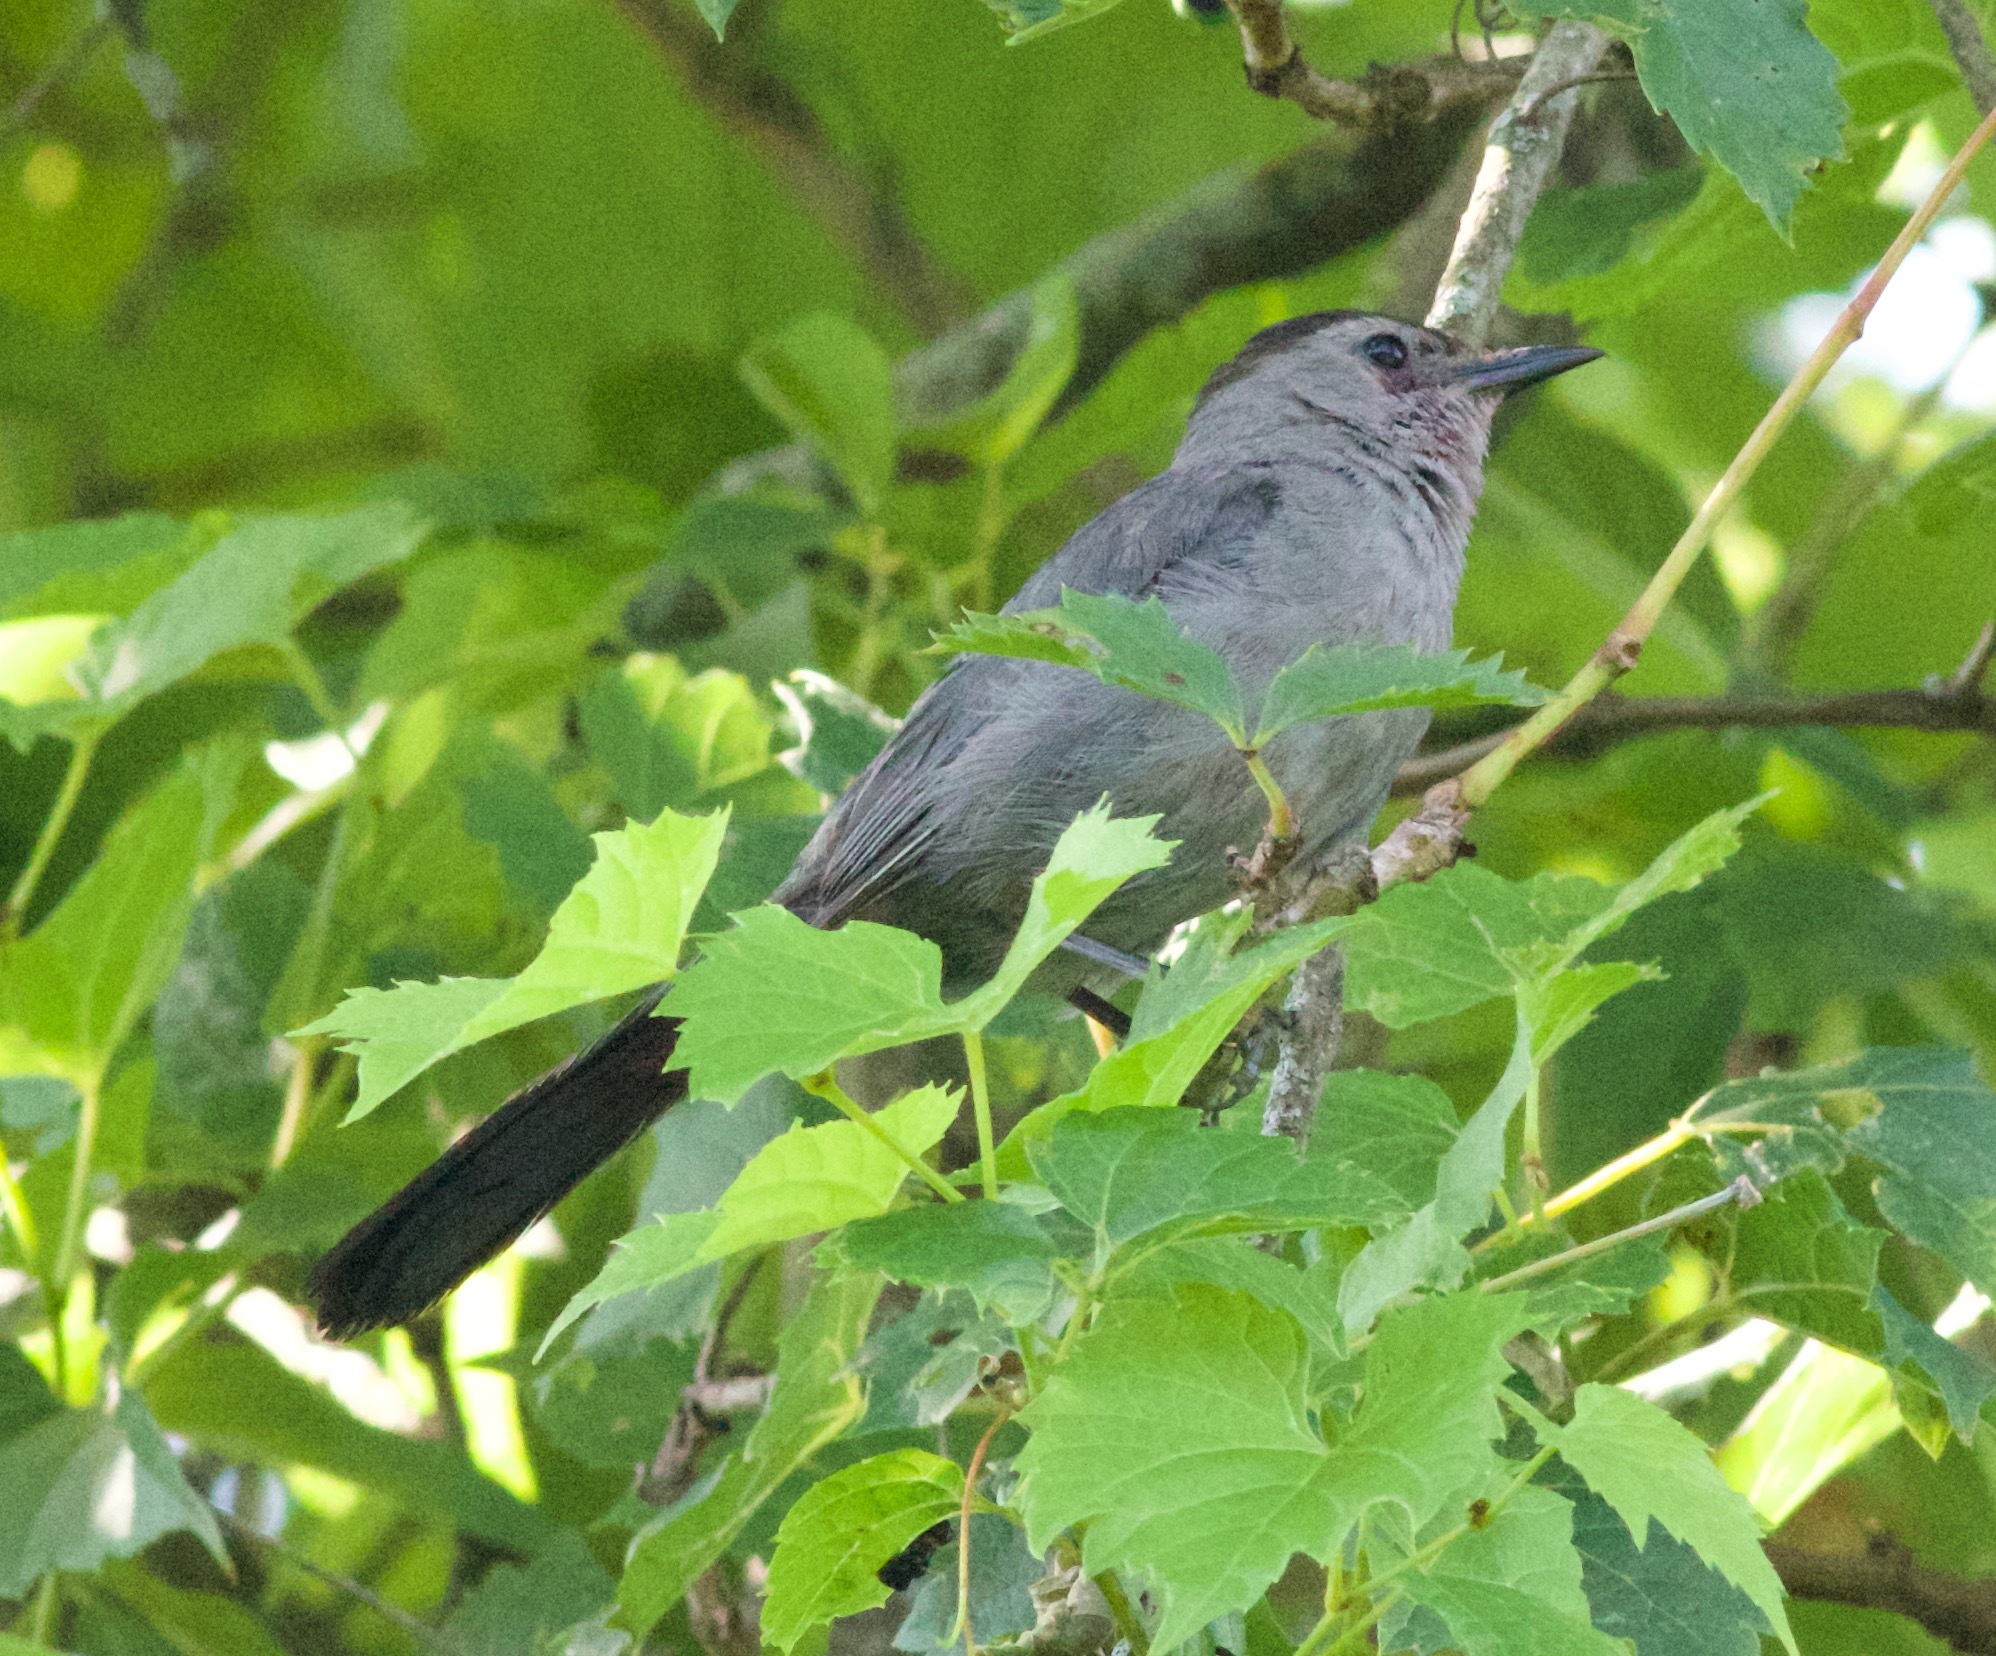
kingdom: Animalia
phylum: Chordata
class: Aves
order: Passeriformes
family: Mimidae
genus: Dumetella
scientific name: Dumetella carolinensis
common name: Gray catbird
